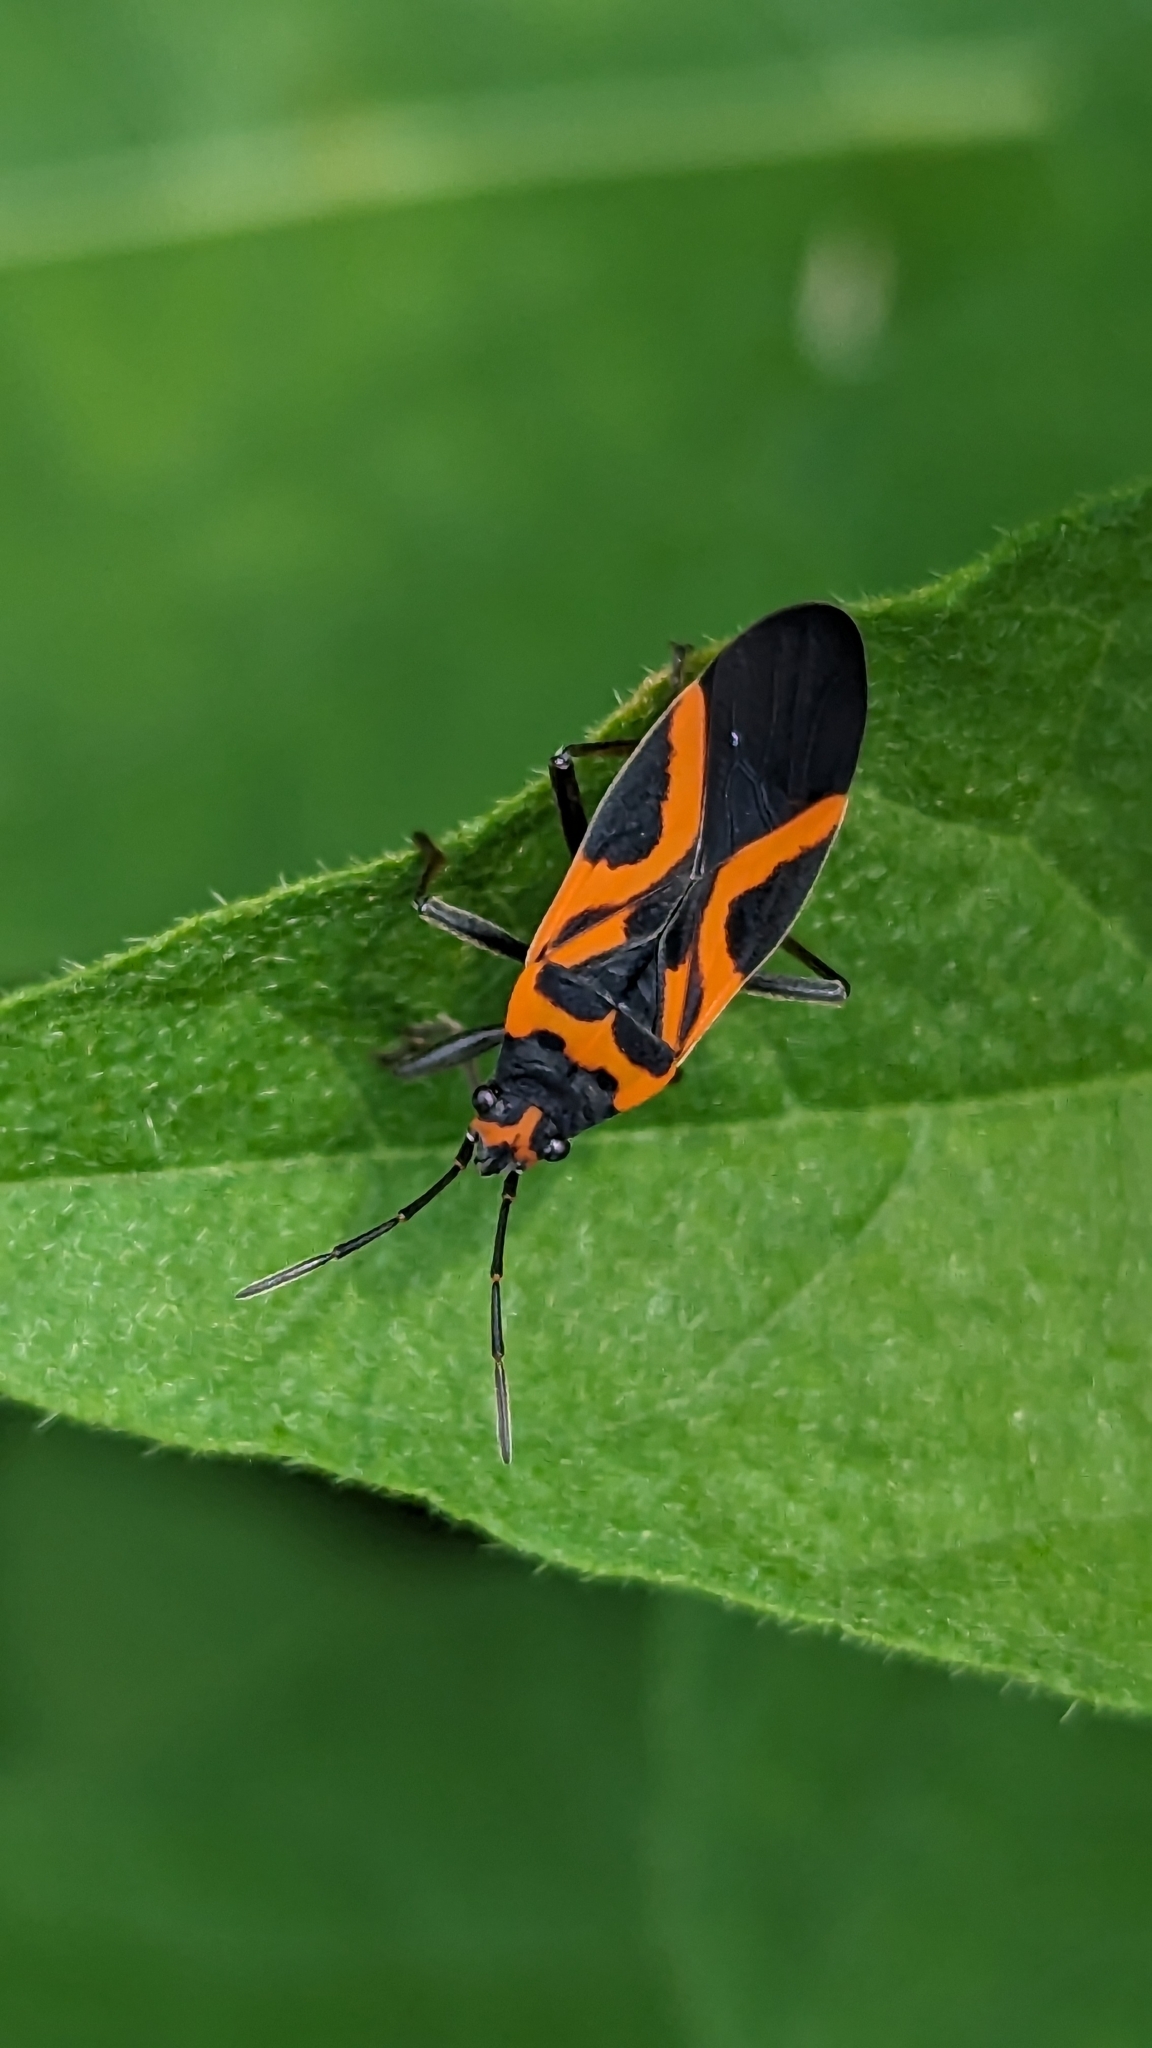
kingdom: Animalia
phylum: Arthropoda
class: Insecta
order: Hemiptera
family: Lygaeidae
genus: Lygaeus
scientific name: Lygaeus turcicus
